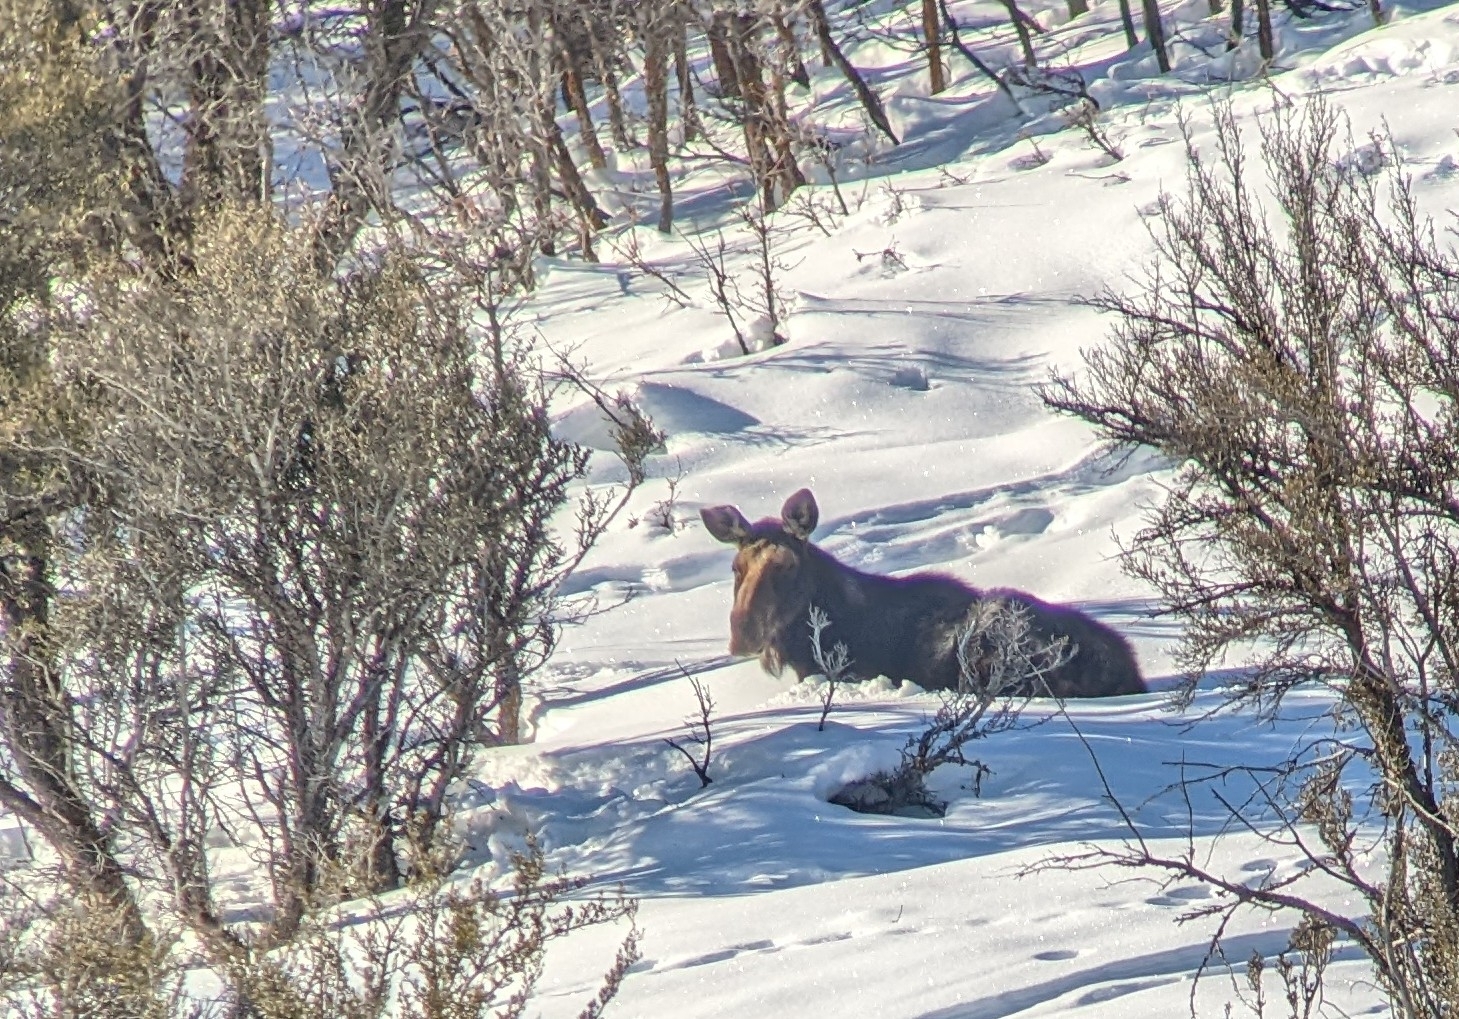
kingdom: Animalia
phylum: Chordata
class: Mammalia
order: Artiodactyla
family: Cervidae
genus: Alces
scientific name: Alces alces
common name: Moose
